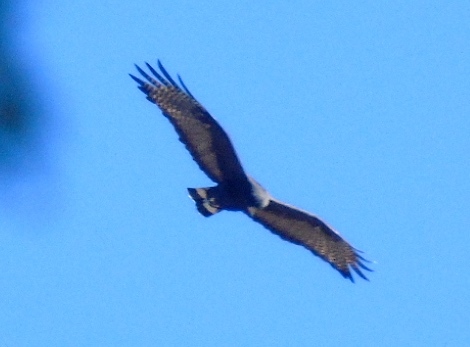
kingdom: Animalia
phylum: Chordata
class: Aves
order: Accipitriformes
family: Accipitridae
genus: Buteo
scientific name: Buteo albonotatus
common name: Zone-tailed hawk
